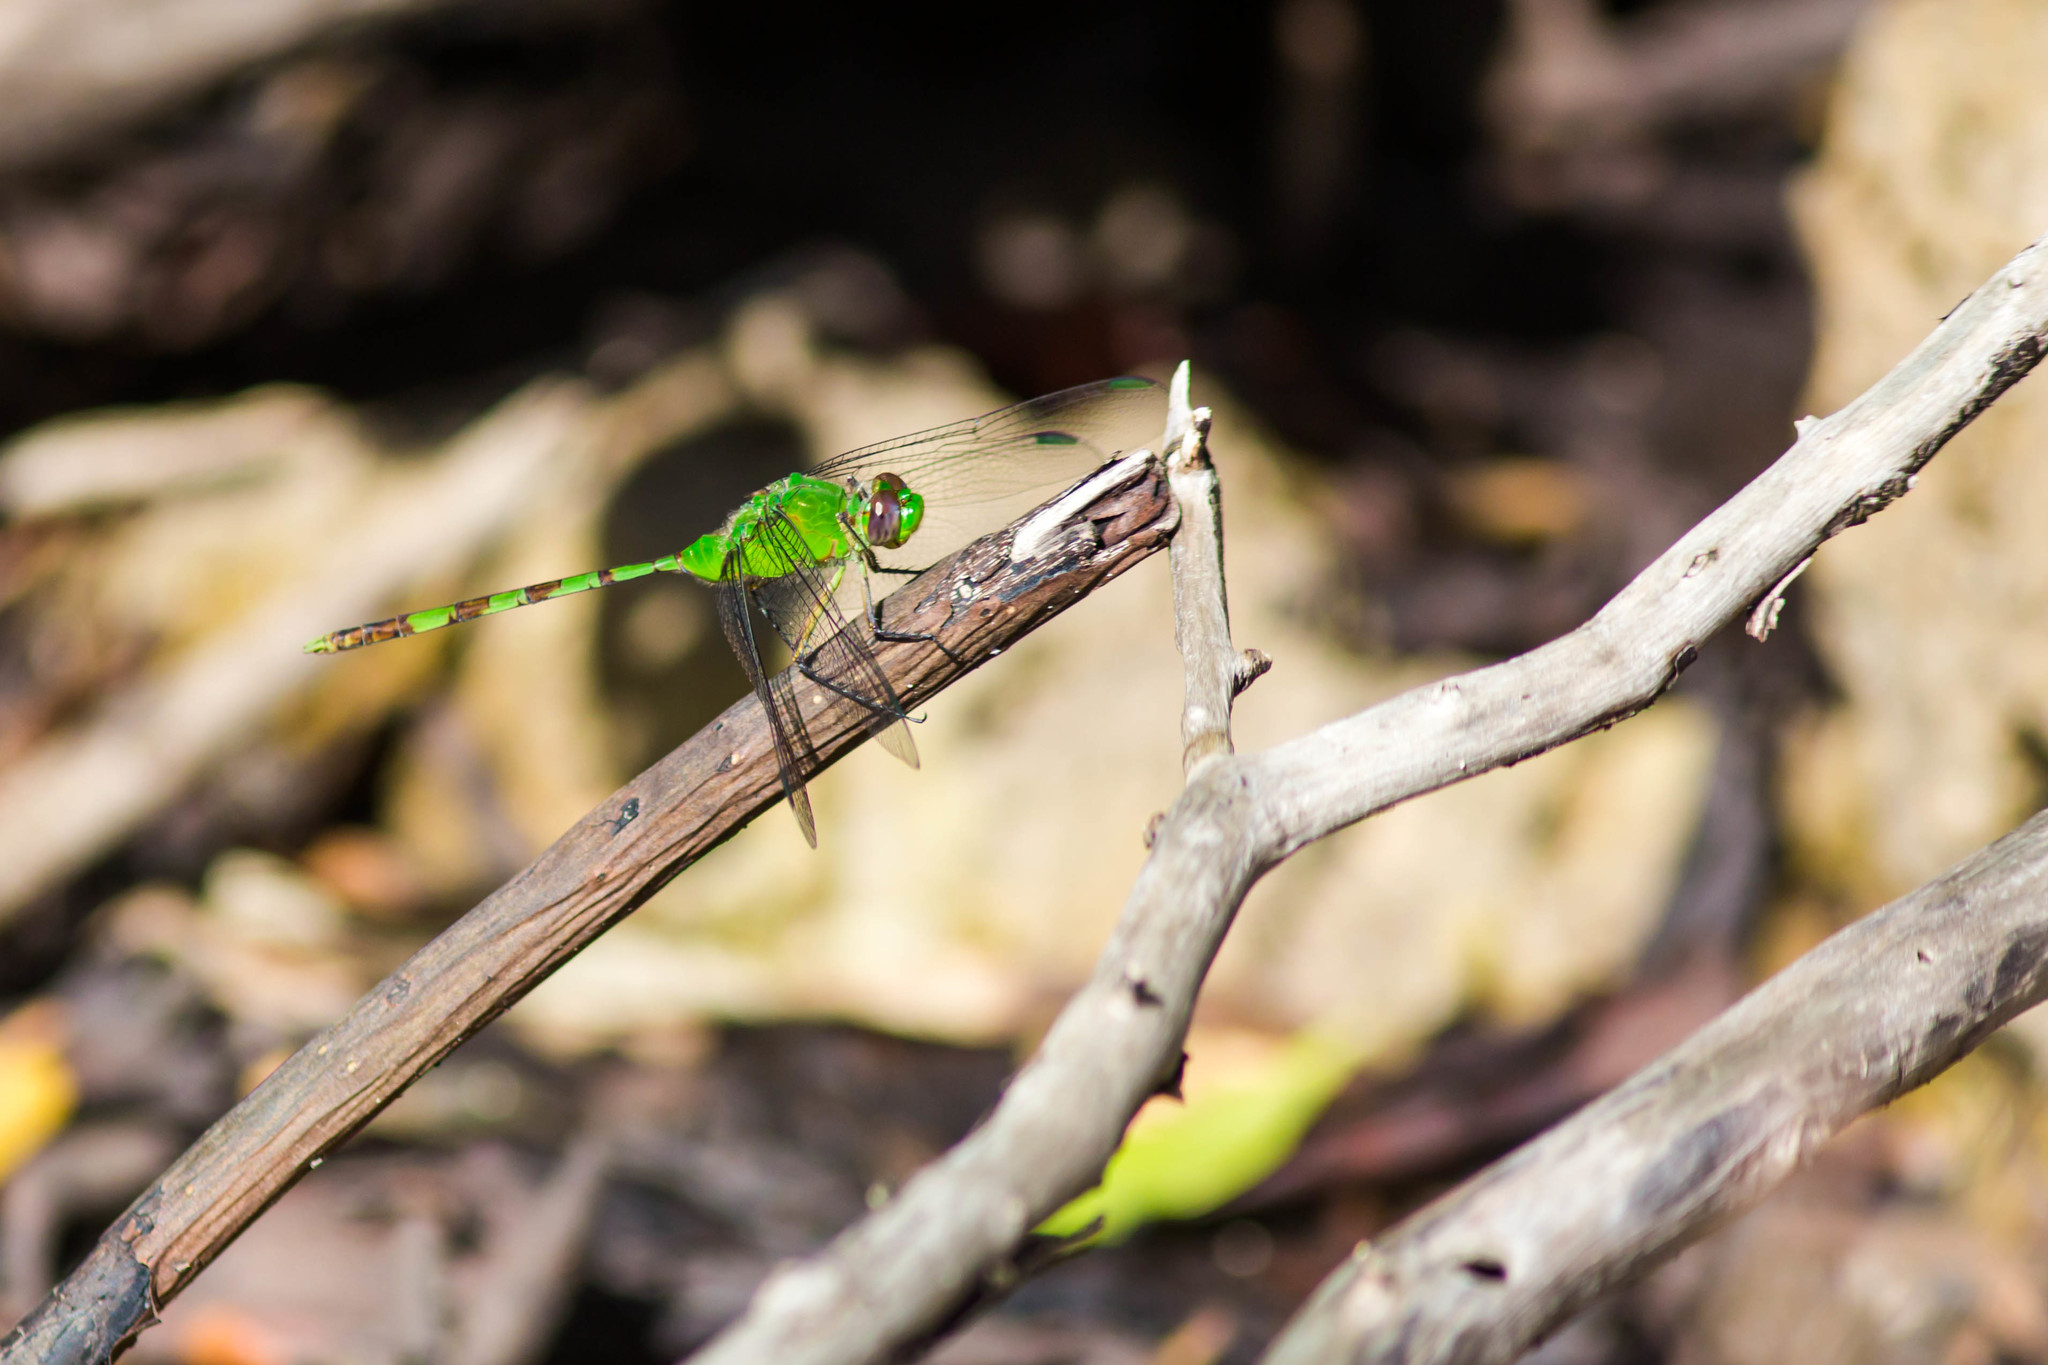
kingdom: Animalia
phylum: Arthropoda
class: Insecta
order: Odonata
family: Libellulidae
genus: Erythemis
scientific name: Erythemis vesiculosa
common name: Great pondhawk
